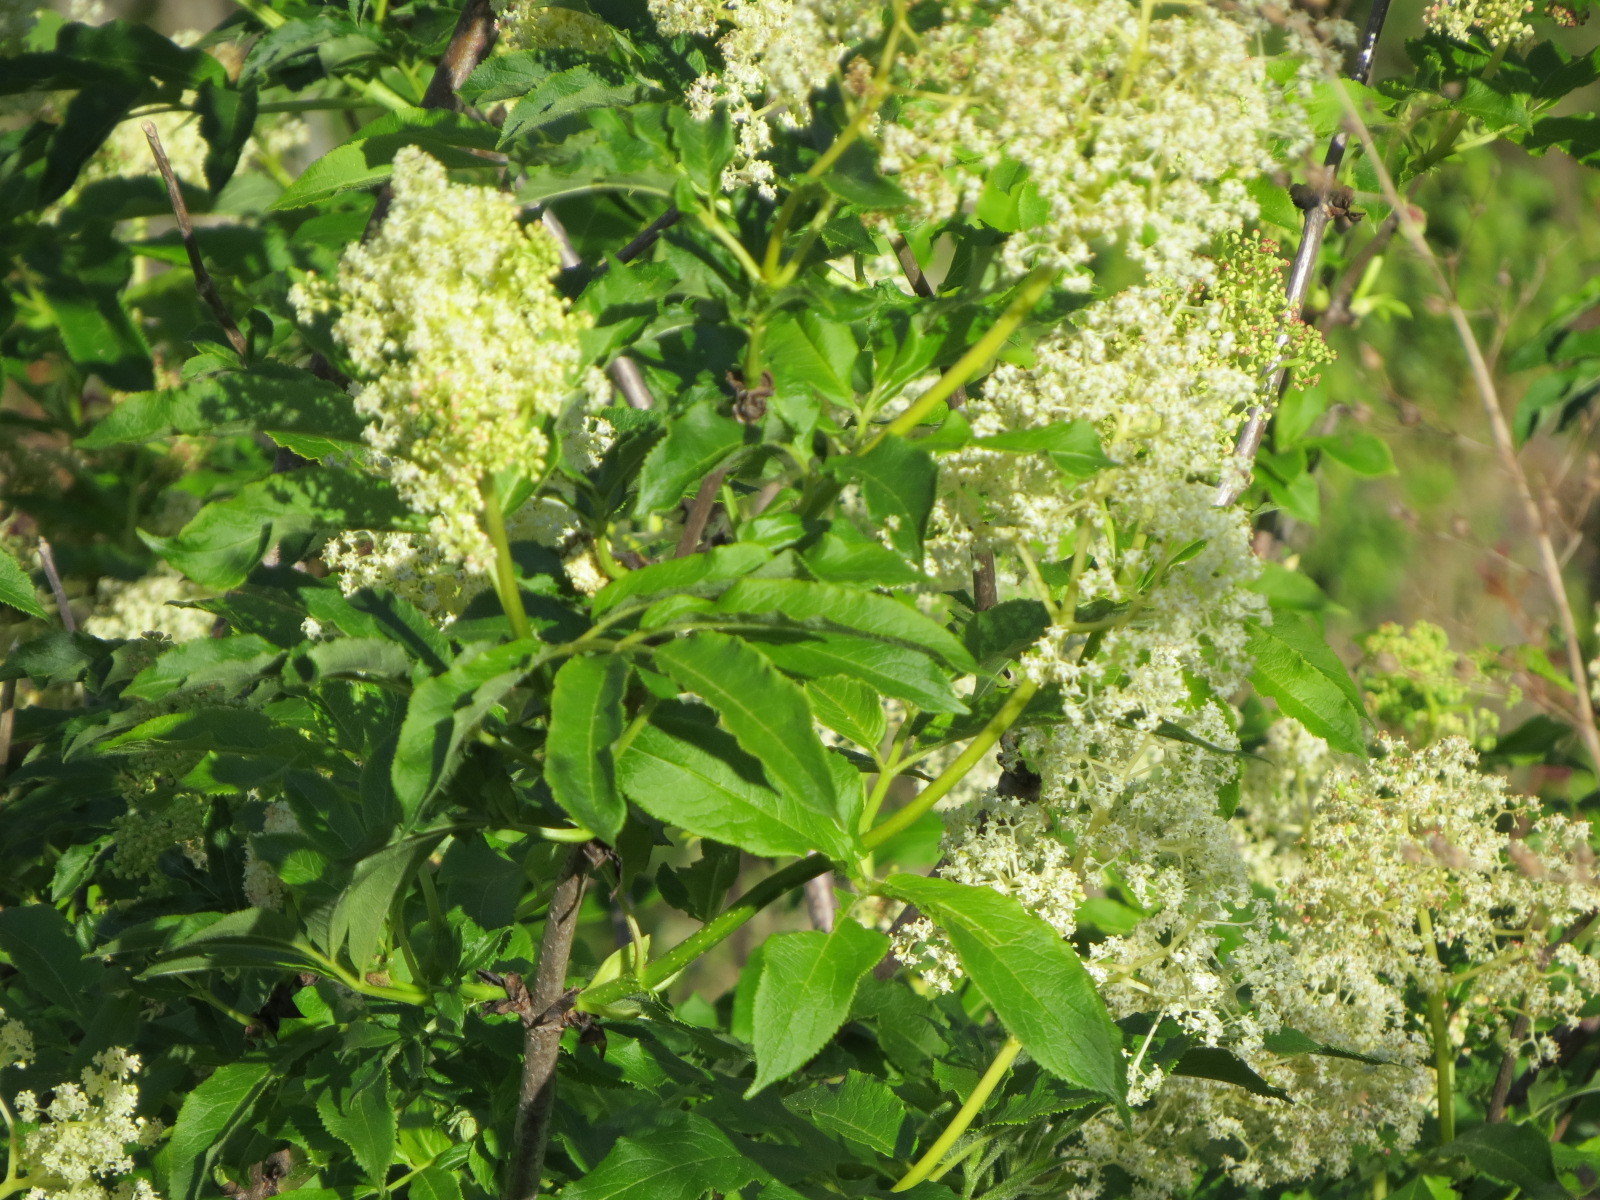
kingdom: Plantae
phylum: Tracheophyta
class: Magnoliopsida
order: Dipsacales
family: Viburnaceae
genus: Sambucus
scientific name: Sambucus racemosa
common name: Red-berried elder
